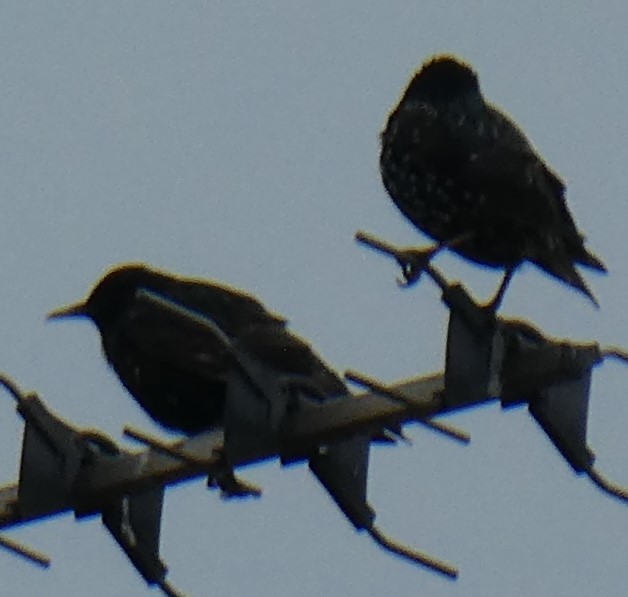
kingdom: Animalia
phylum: Chordata
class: Aves
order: Passeriformes
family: Sturnidae
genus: Sturnus
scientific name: Sturnus vulgaris
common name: Common starling
